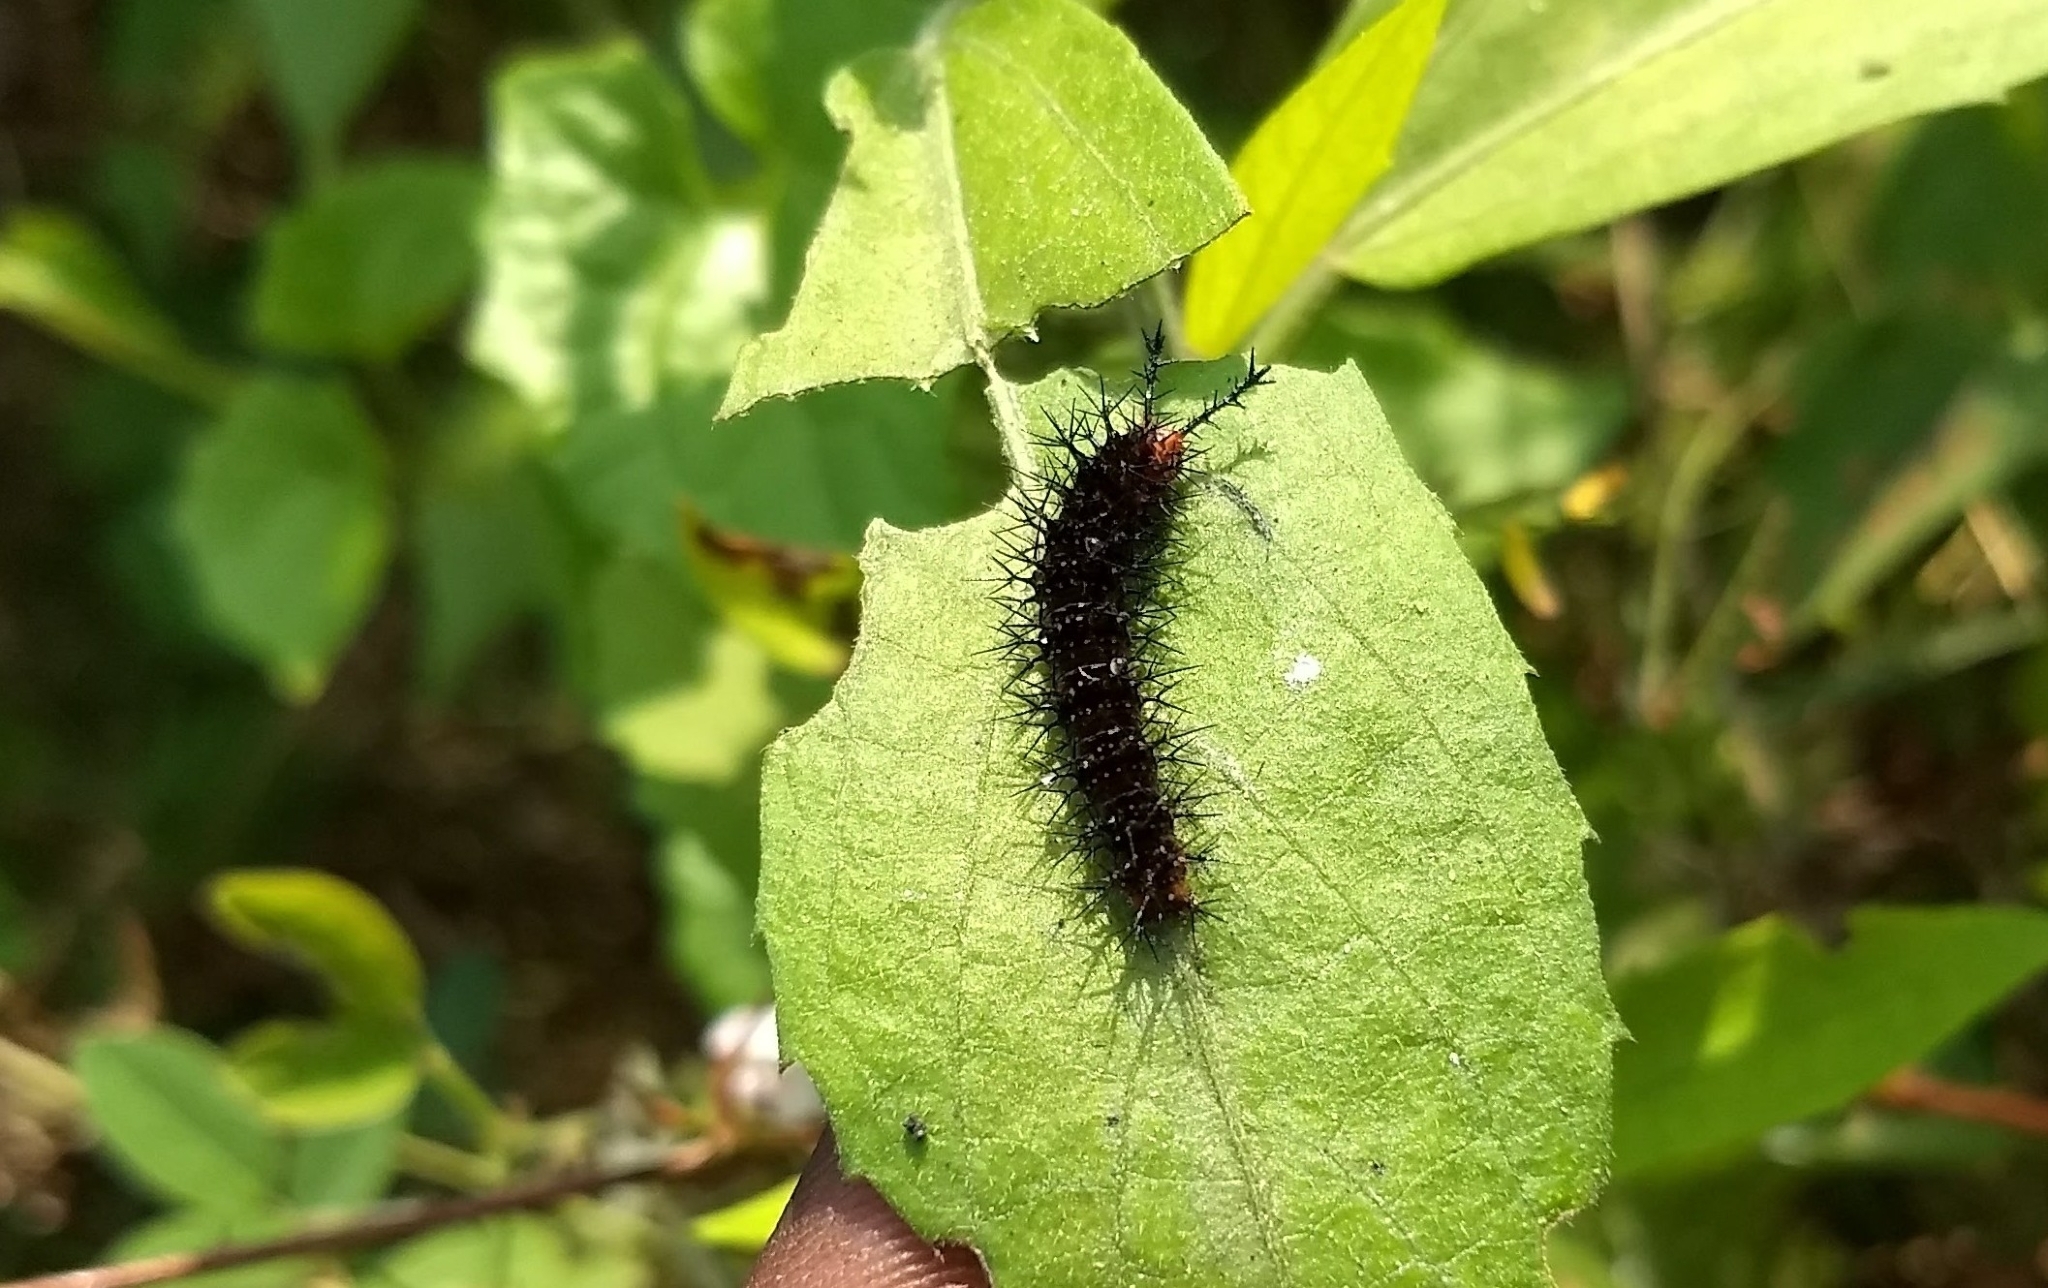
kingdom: Animalia
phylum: Arthropoda
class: Insecta
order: Lepidoptera
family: Nymphalidae
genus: Ariadne
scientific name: Ariadne ariadne
